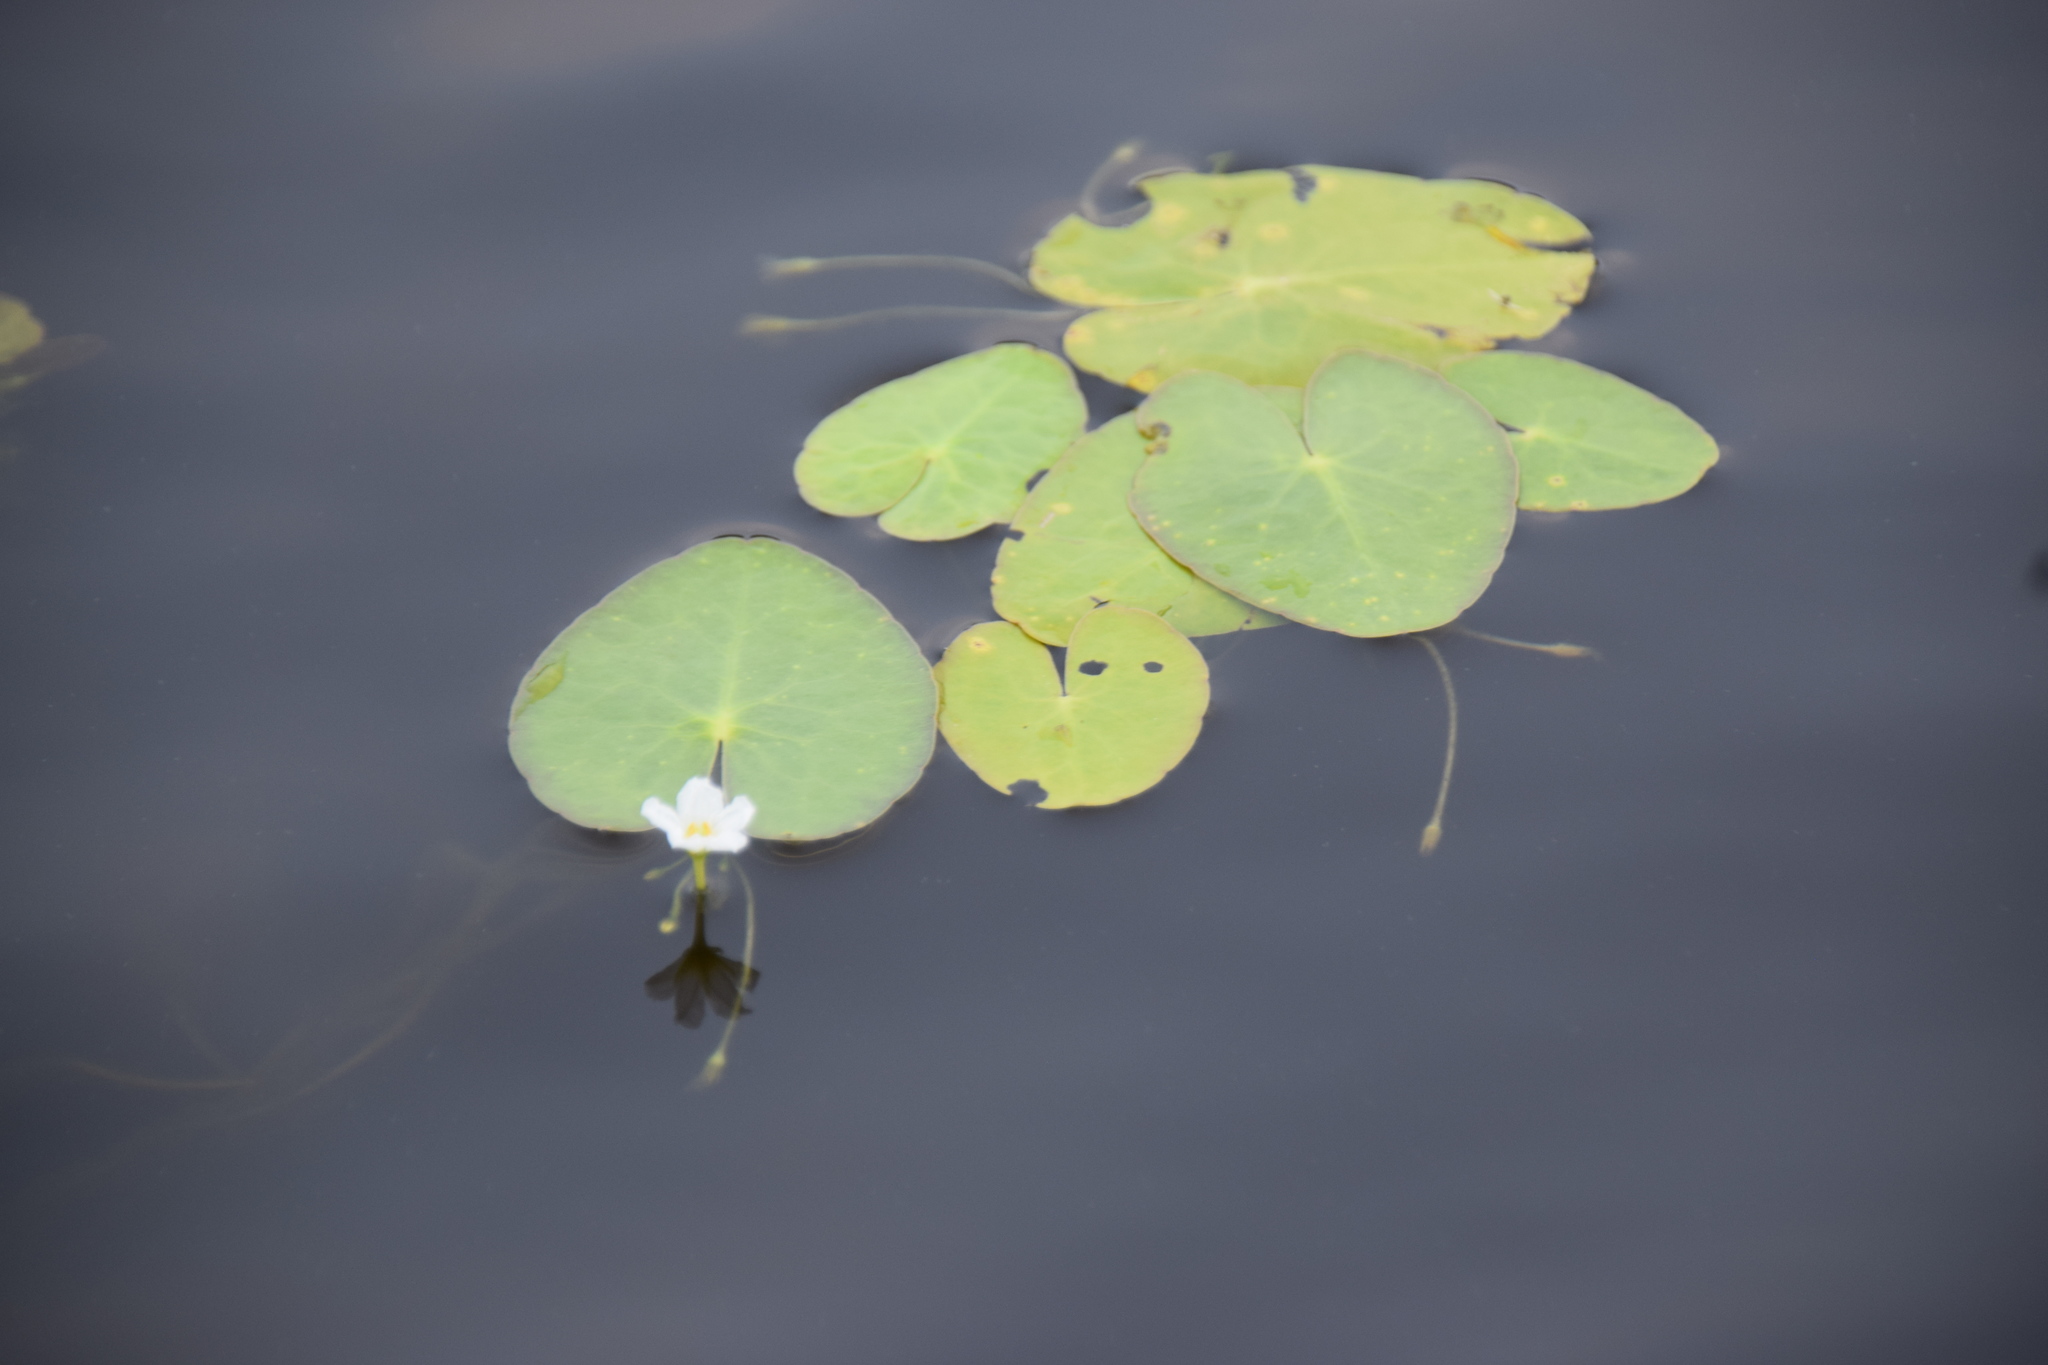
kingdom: Plantae
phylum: Tracheophyta
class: Magnoliopsida
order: Asterales
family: Menyanthaceae
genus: Nymphoides
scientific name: Nymphoides cordata
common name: Eight-angled floatingheart
